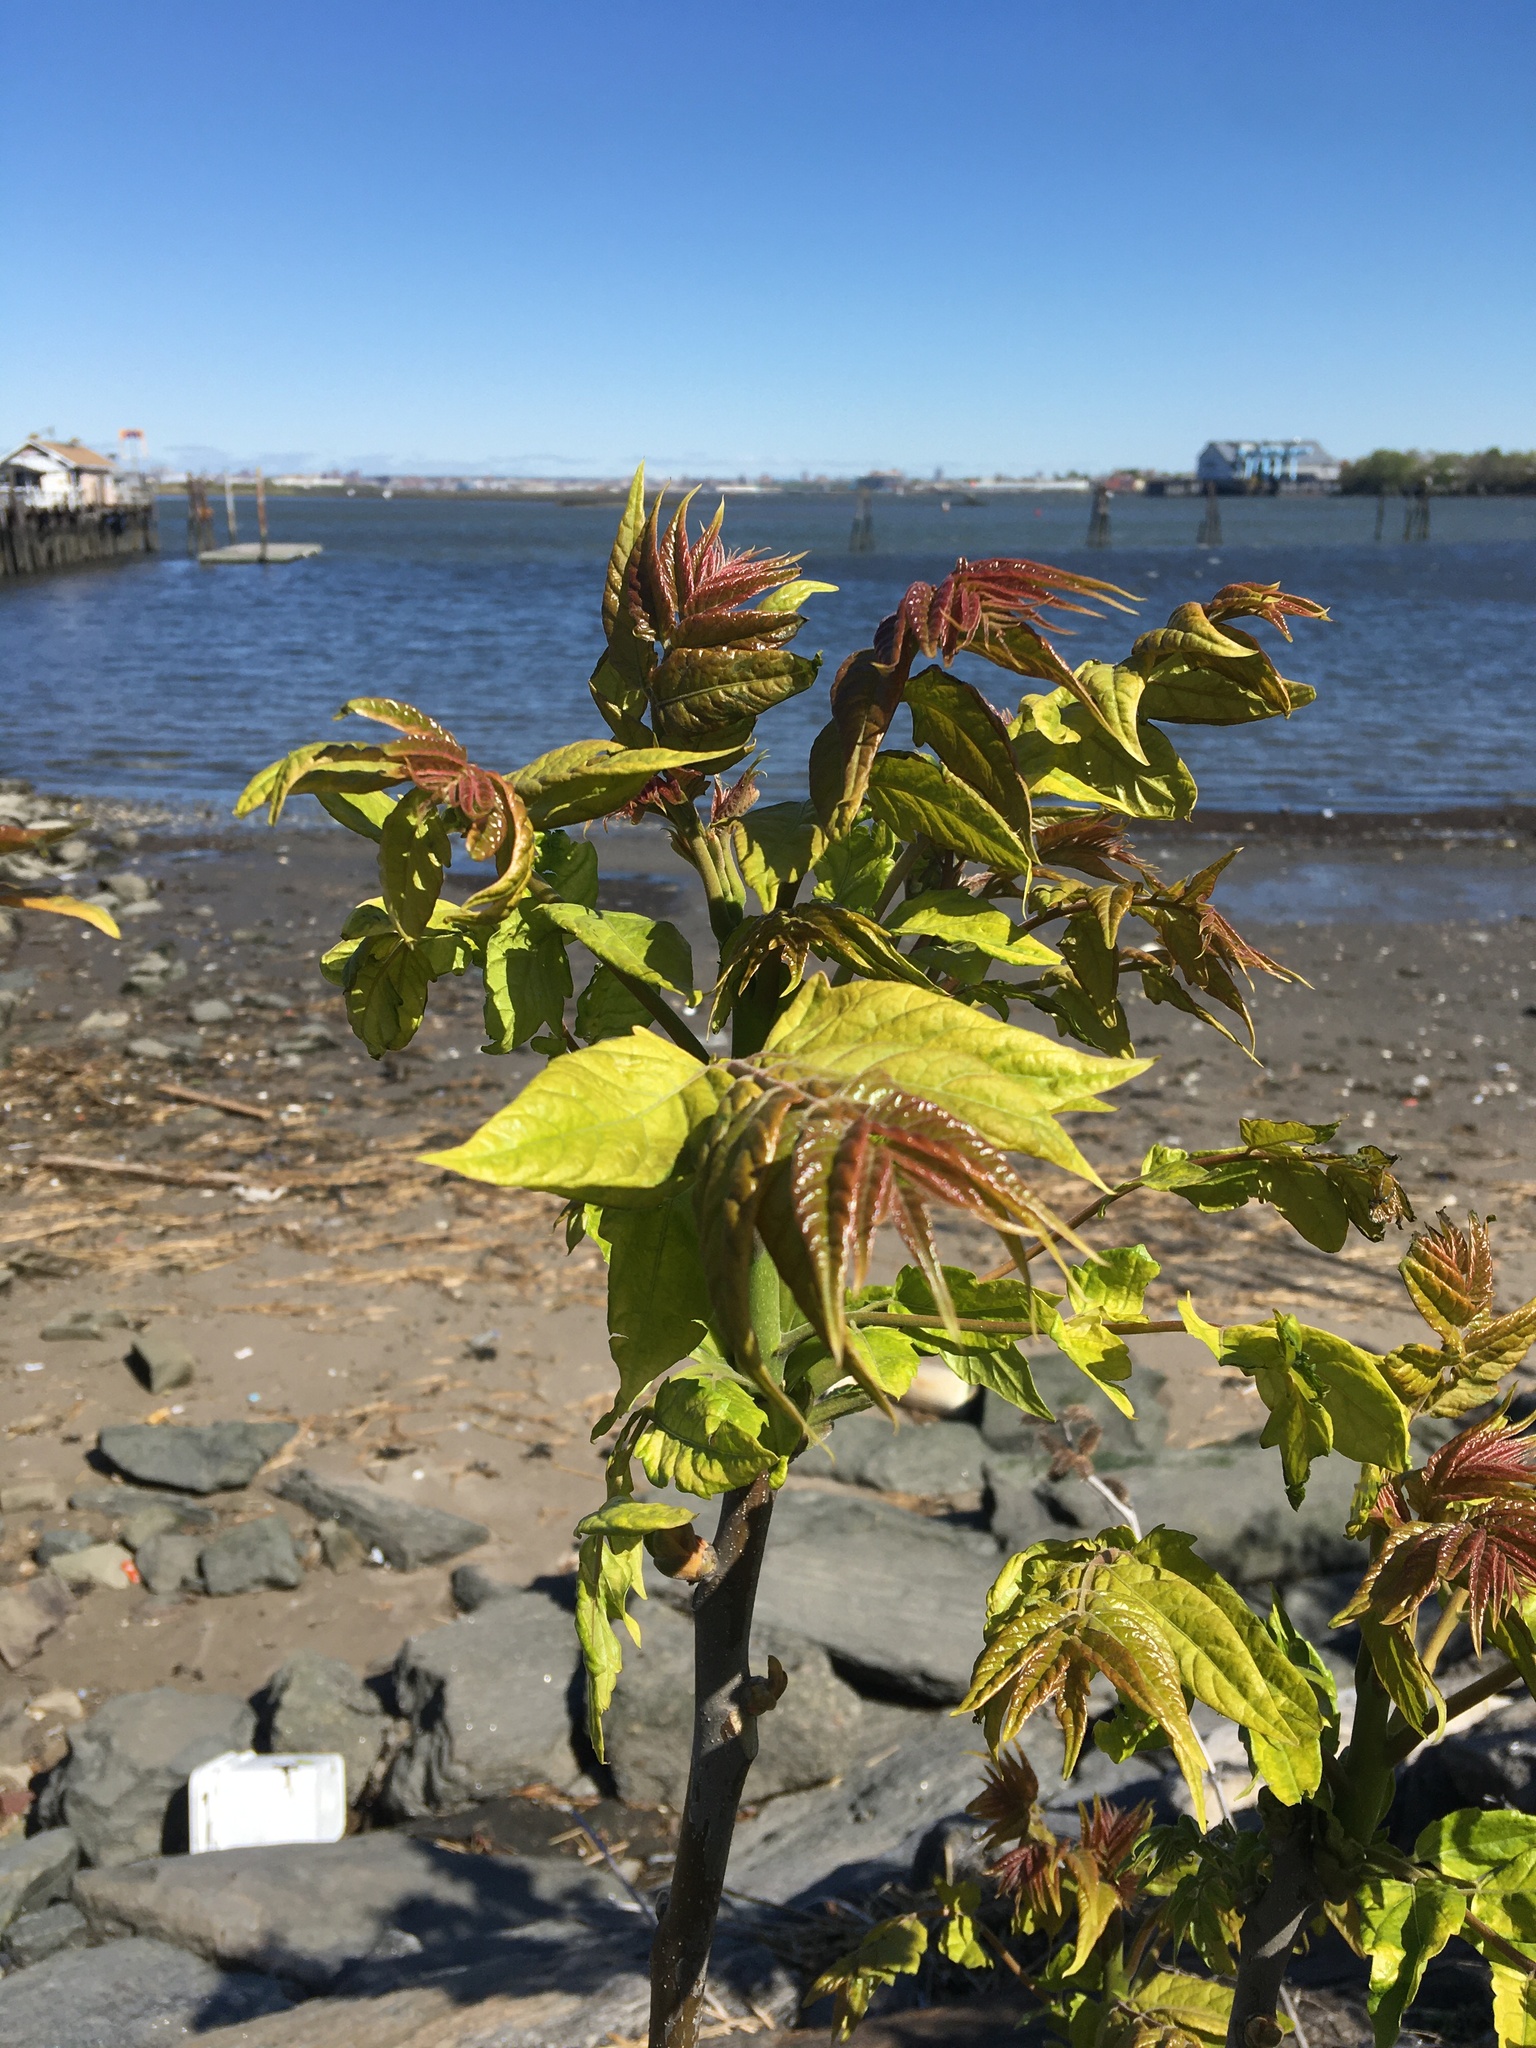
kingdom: Plantae
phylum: Tracheophyta
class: Magnoliopsida
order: Sapindales
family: Simaroubaceae
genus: Ailanthus
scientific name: Ailanthus altissima
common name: Tree-of-heaven
